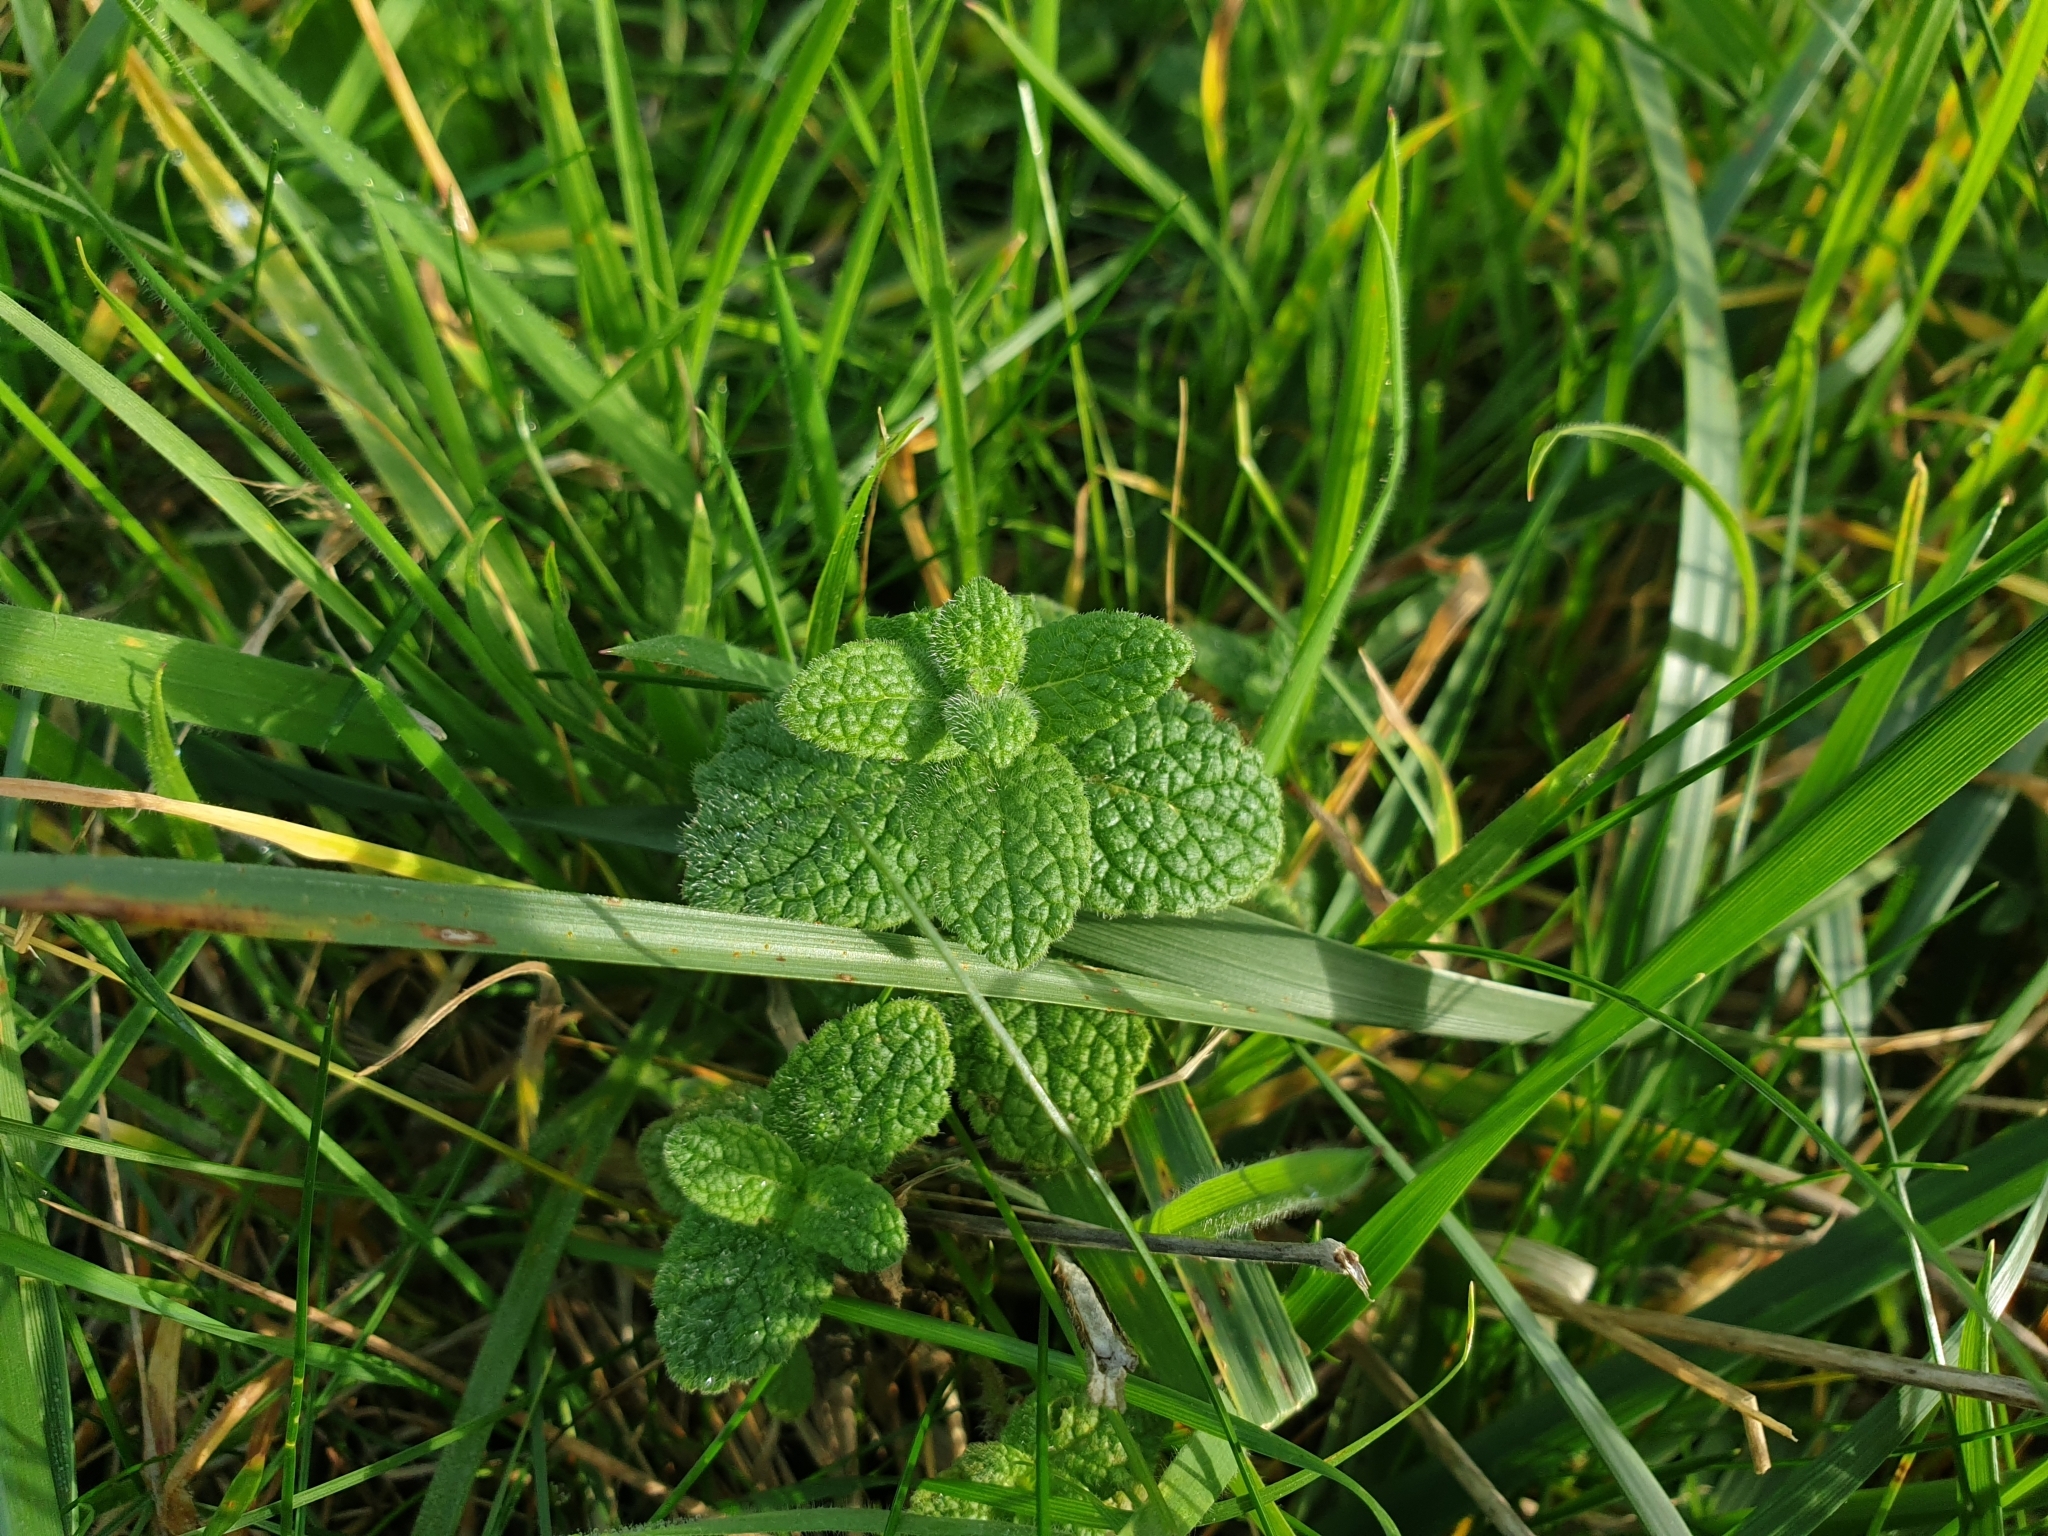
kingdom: Plantae
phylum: Tracheophyta
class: Magnoliopsida
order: Lamiales
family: Lamiaceae
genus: Mentha
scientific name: Mentha suaveolens
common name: Apple mint
